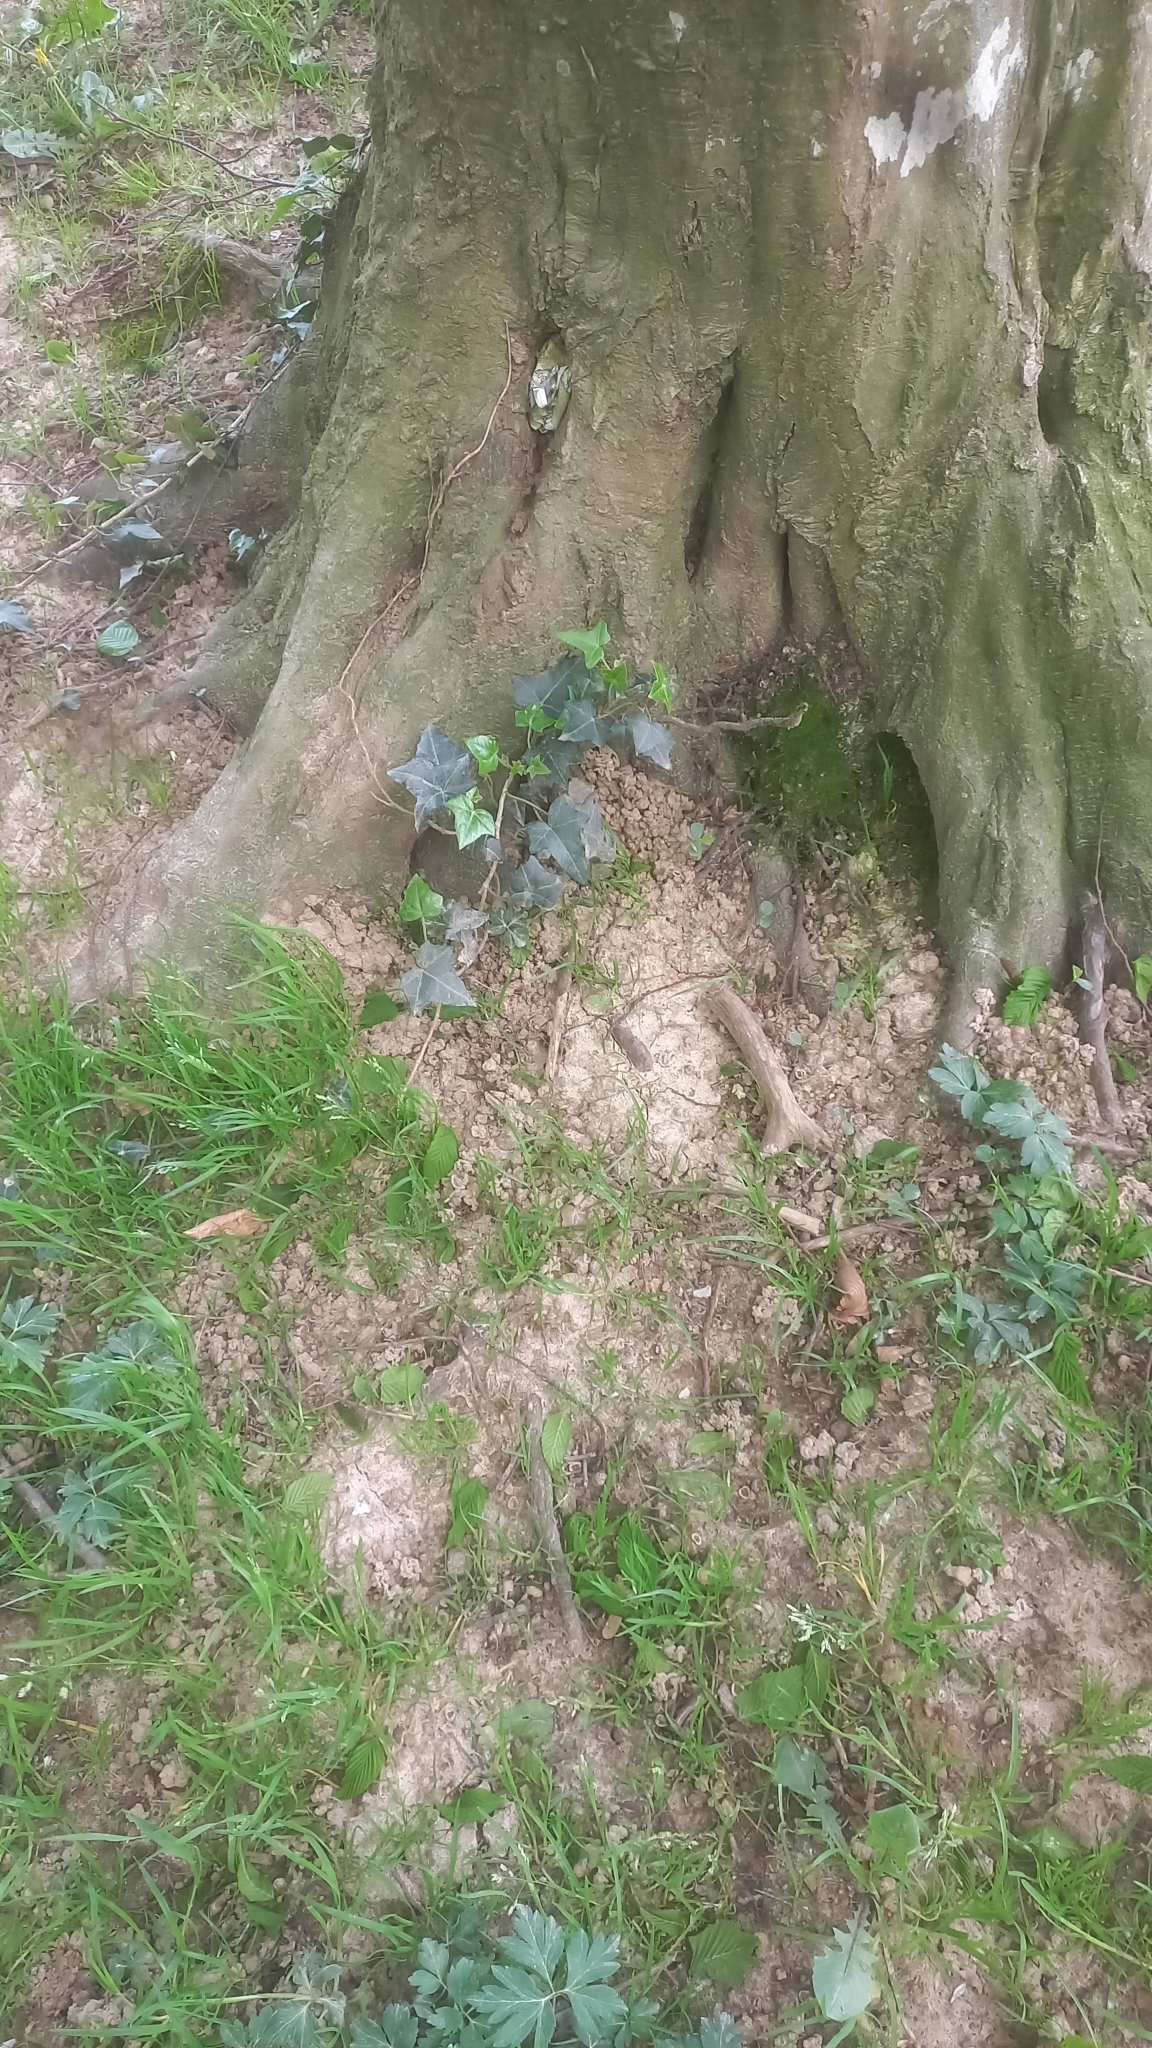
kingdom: Plantae
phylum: Tracheophyta
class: Magnoliopsida
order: Apiales
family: Araliaceae
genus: Hedera
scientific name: Hedera helix
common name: Ivy
